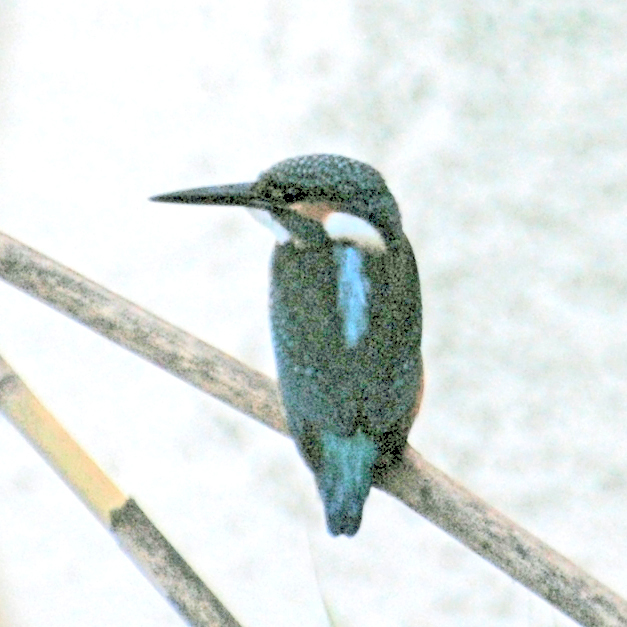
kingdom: Animalia
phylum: Chordata
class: Aves
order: Coraciiformes
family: Alcedinidae
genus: Alcedo
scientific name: Alcedo atthis
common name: Common kingfisher
